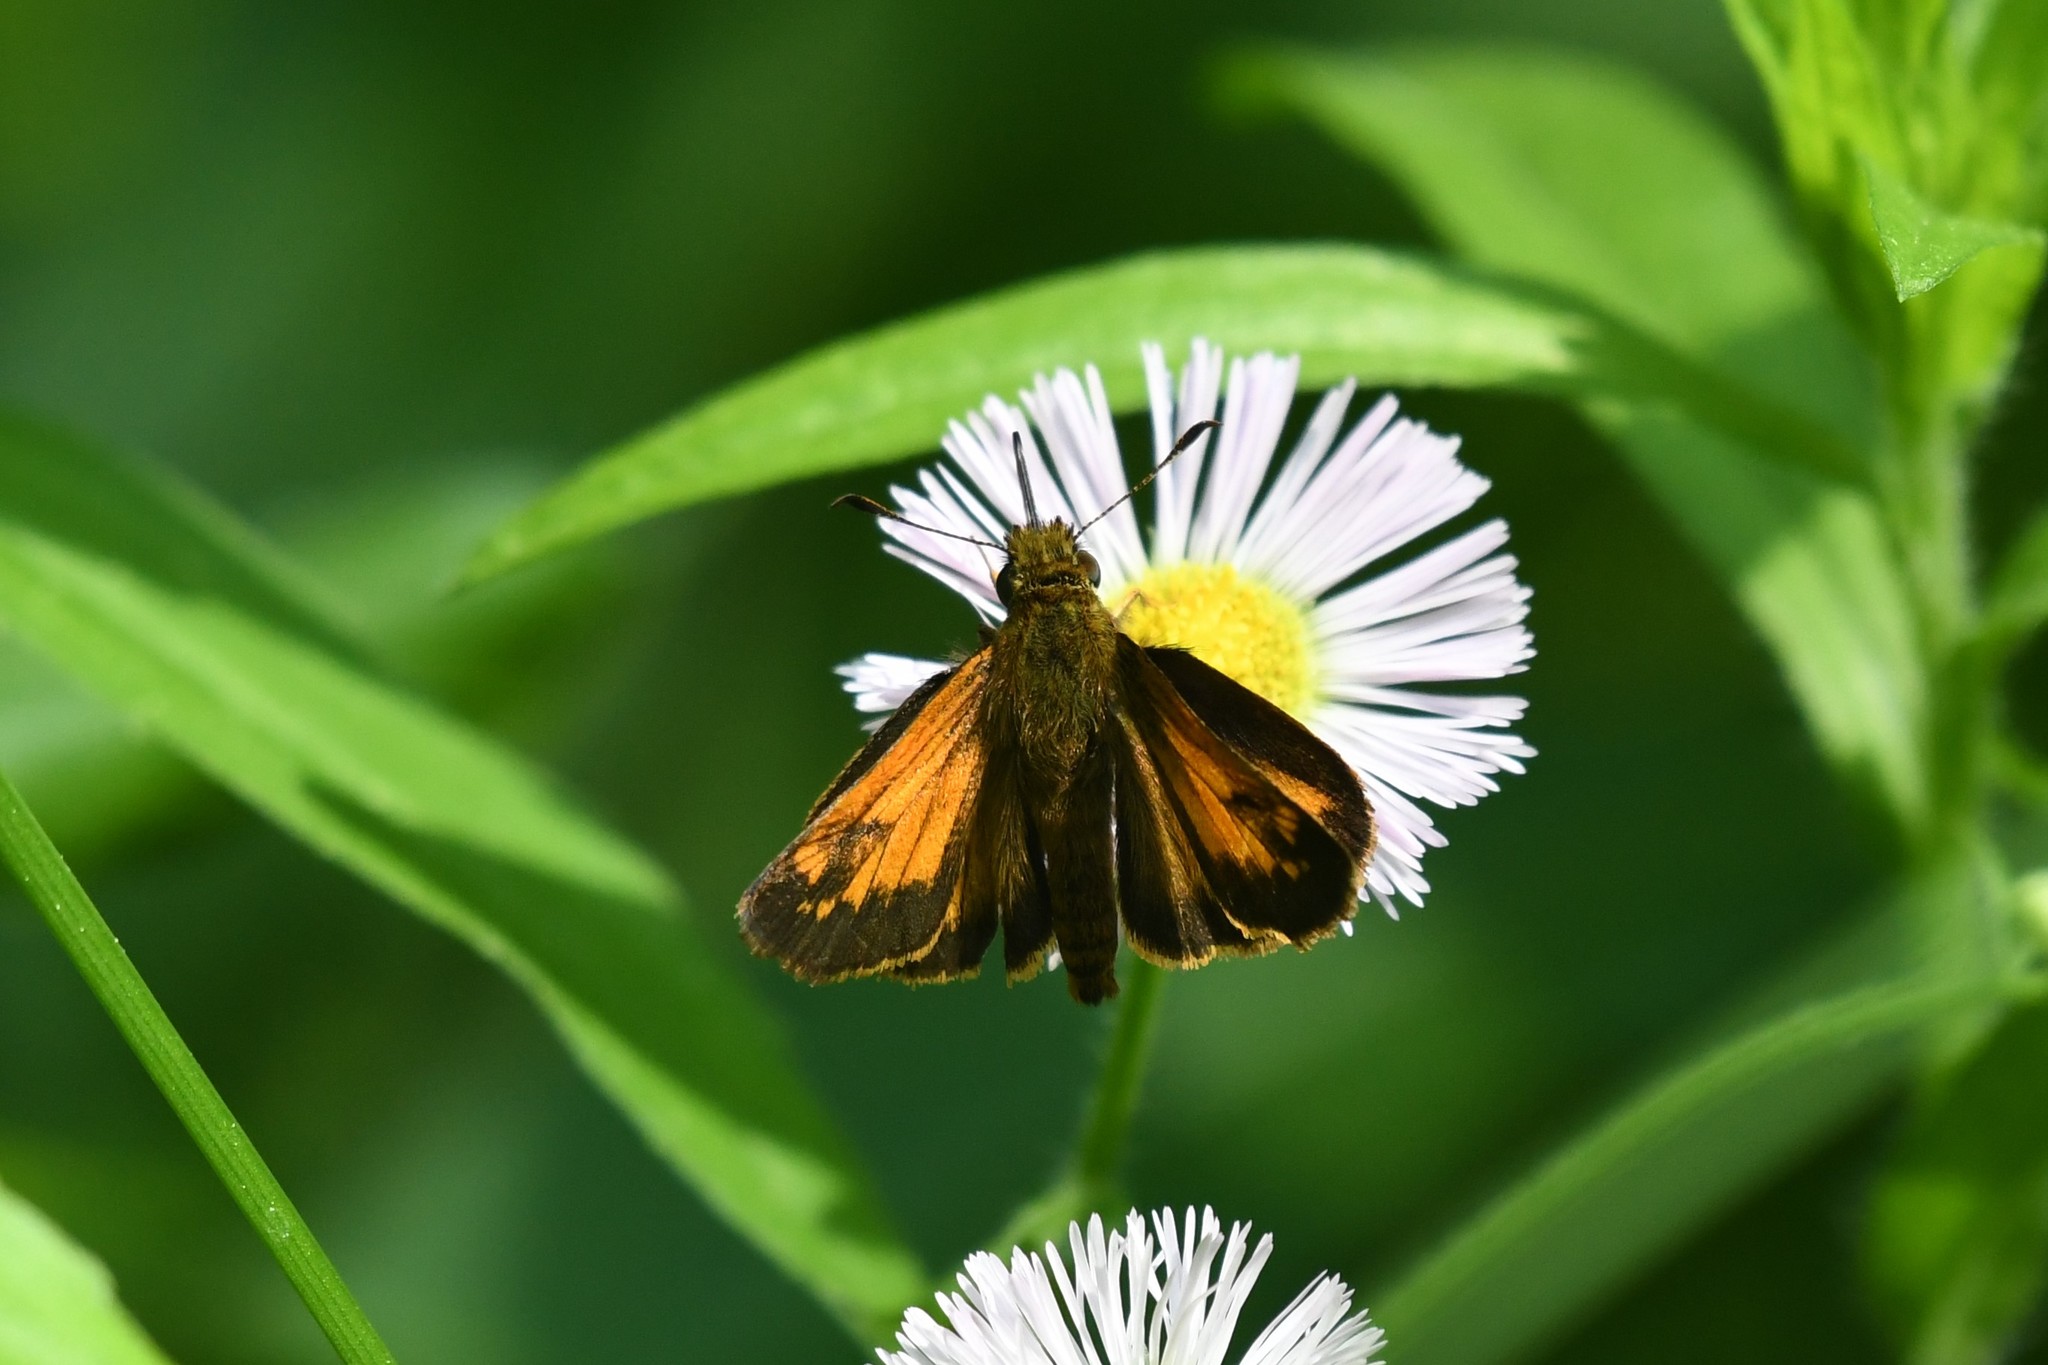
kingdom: Animalia
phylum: Arthropoda
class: Insecta
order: Lepidoptera
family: Hesperiidae
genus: Lon
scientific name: Lon hobomok
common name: Hobomok skipper
